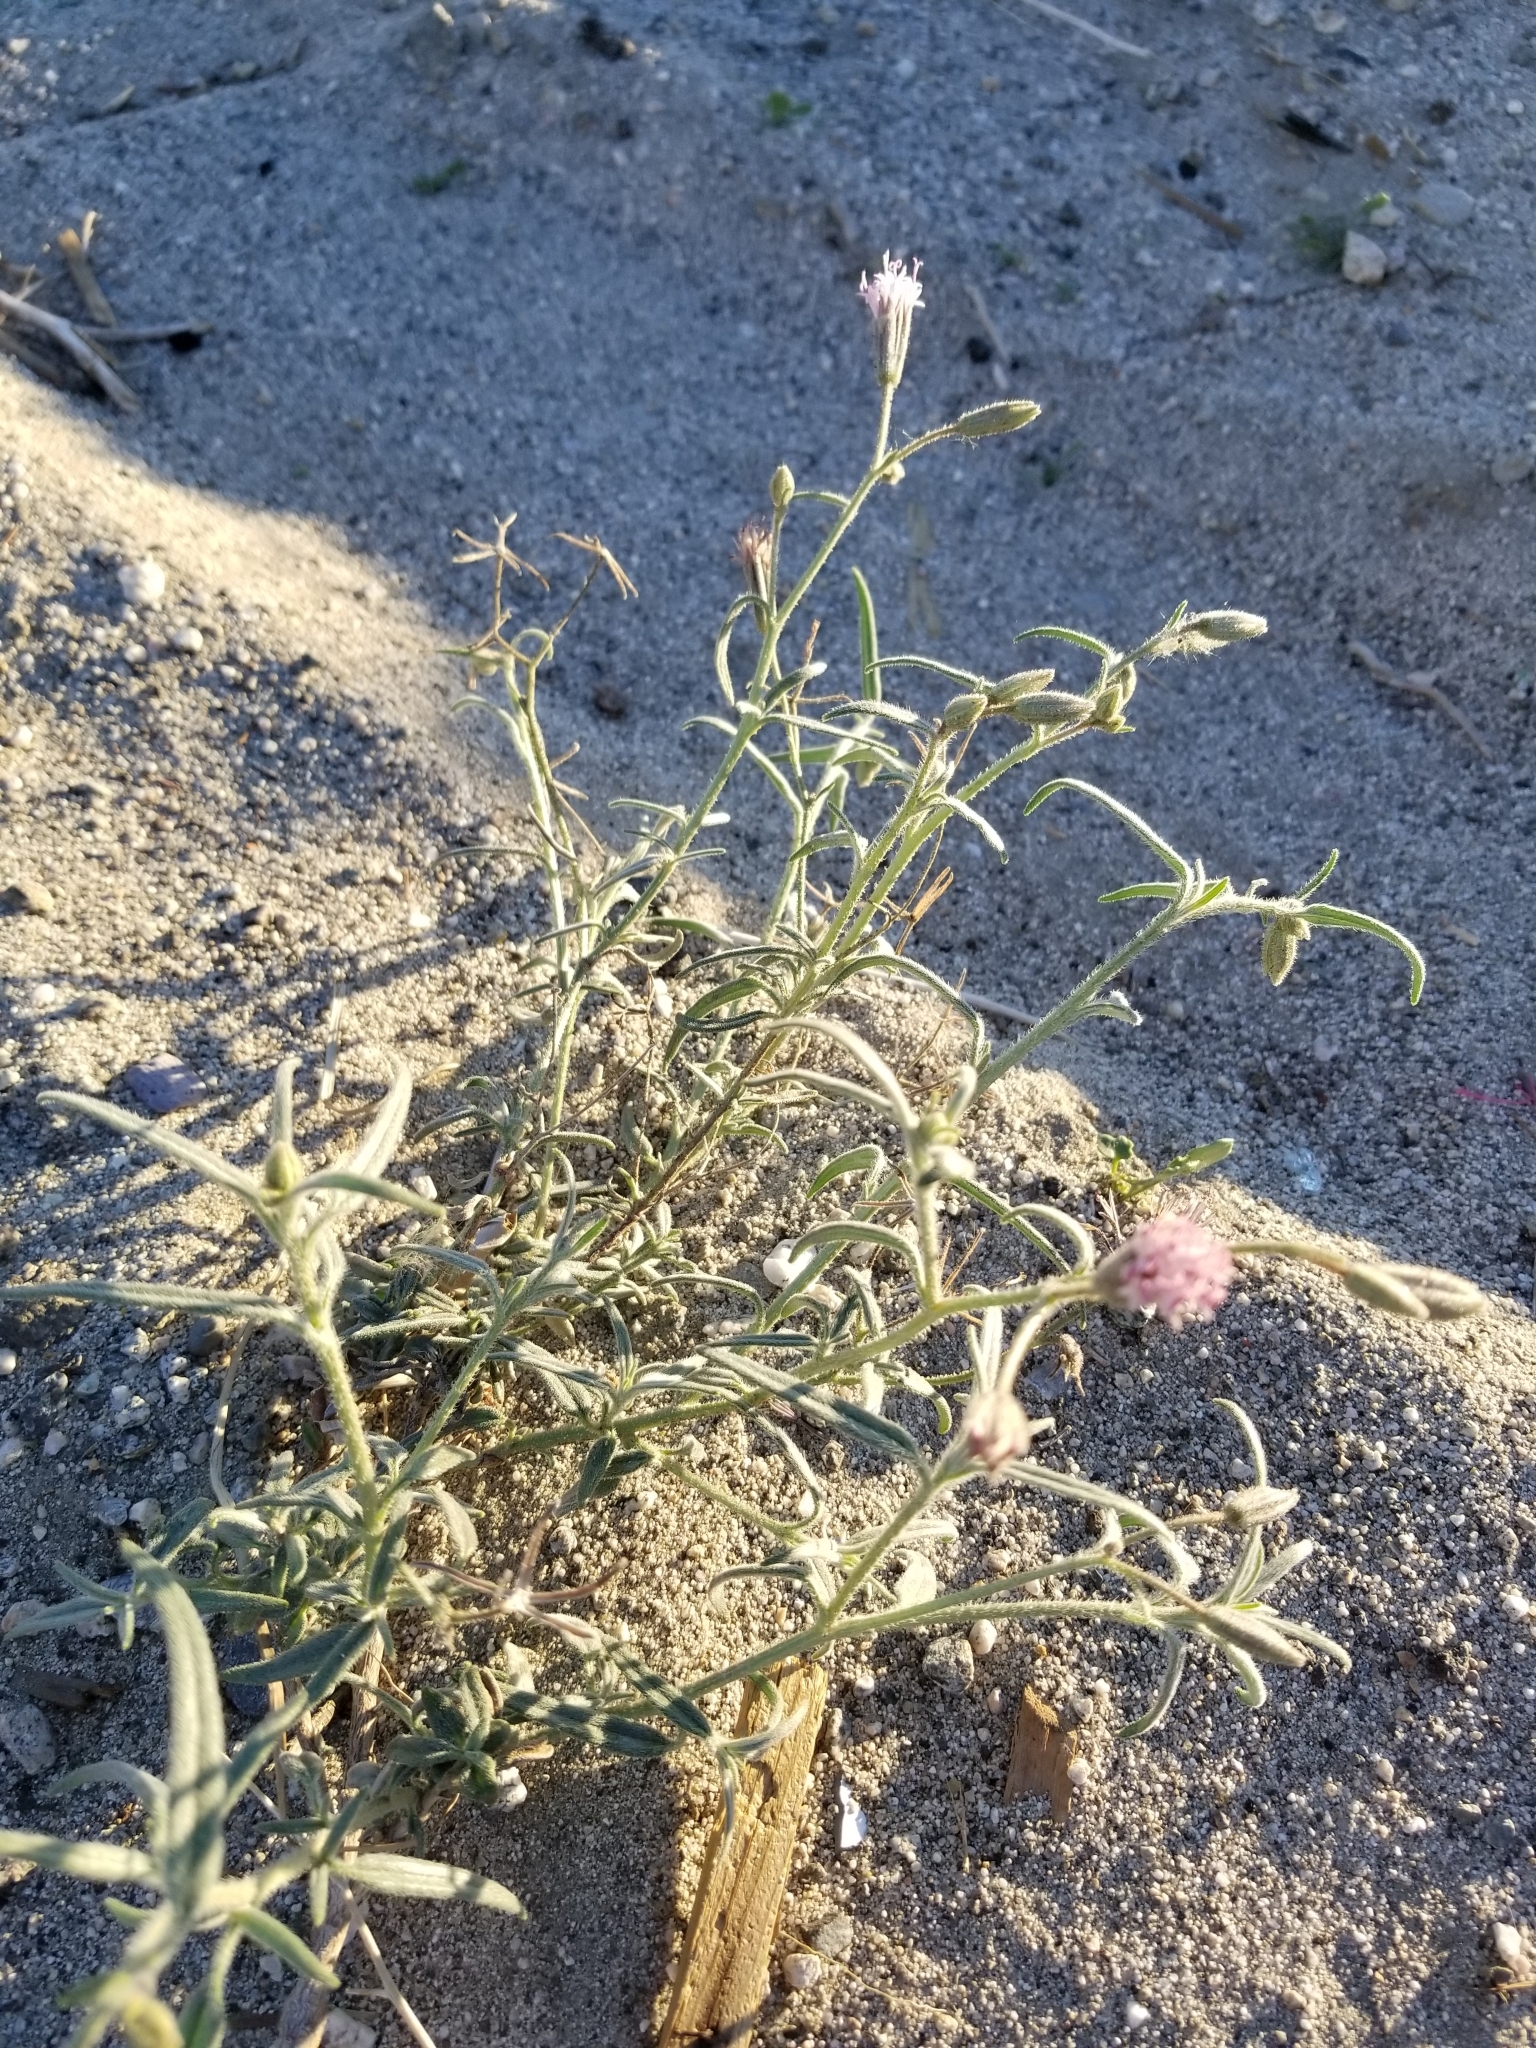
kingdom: Plantae
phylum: Tracheophyta
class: Magnoliopsida
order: Asterales
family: Asteraceae
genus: Palafoxia
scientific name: Palafoxia arida
